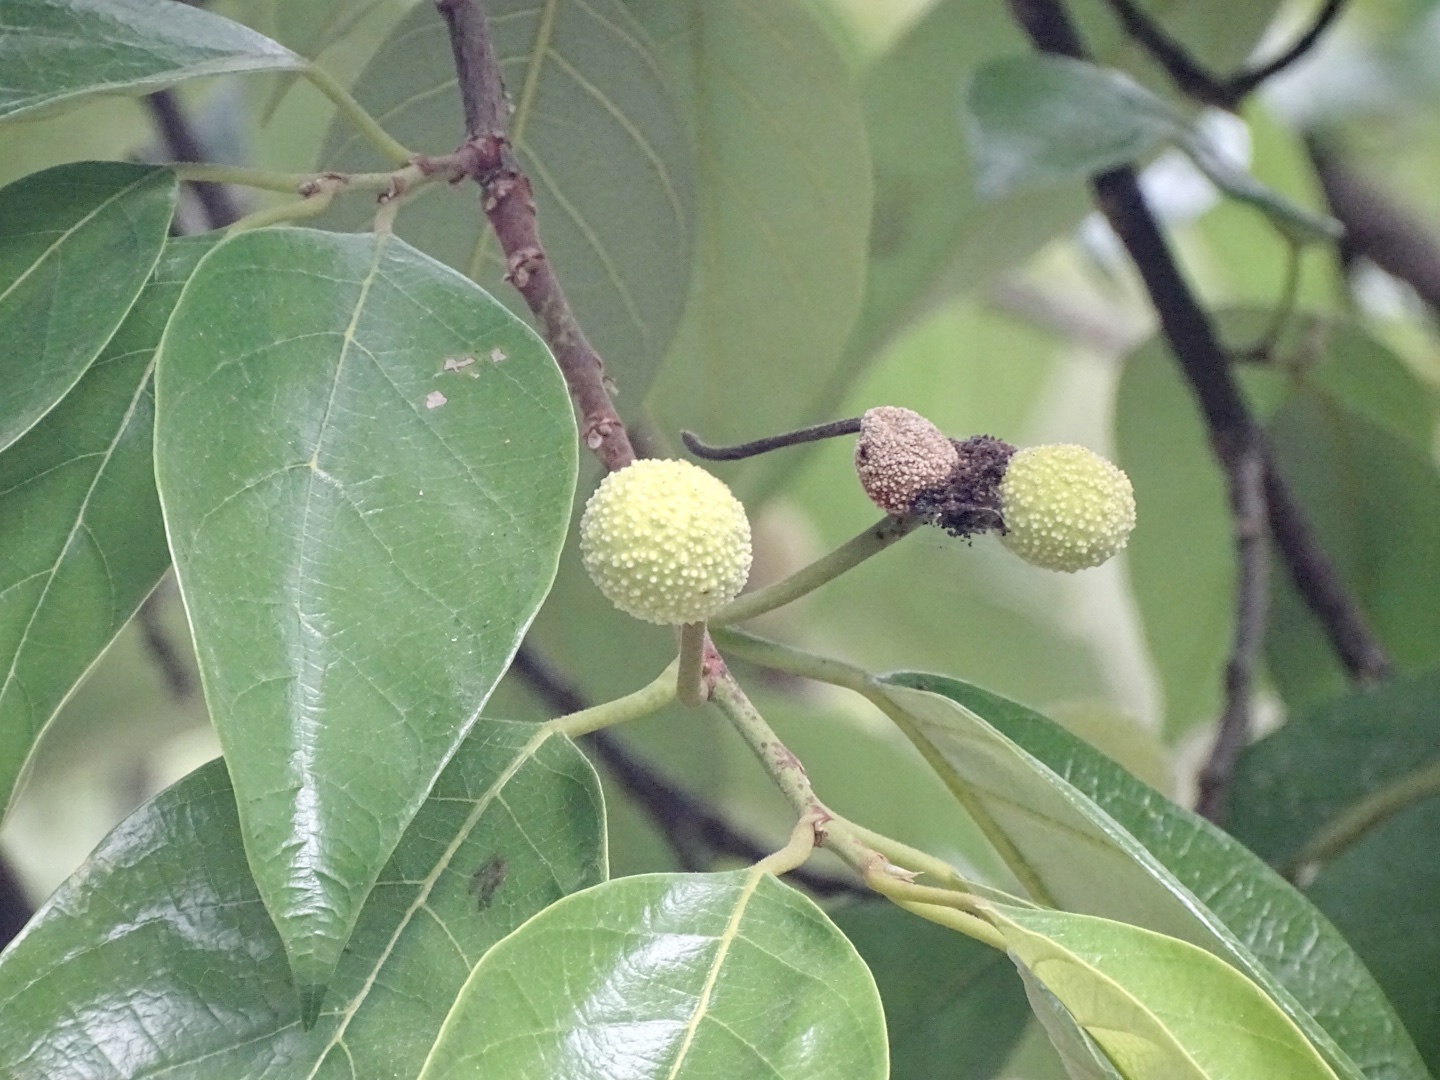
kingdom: Plantae
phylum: Tracheophyta
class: Magnoliopsida
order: Rosales
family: Moraceae
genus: Artocarpus
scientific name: Artocarpus hypargyreus
